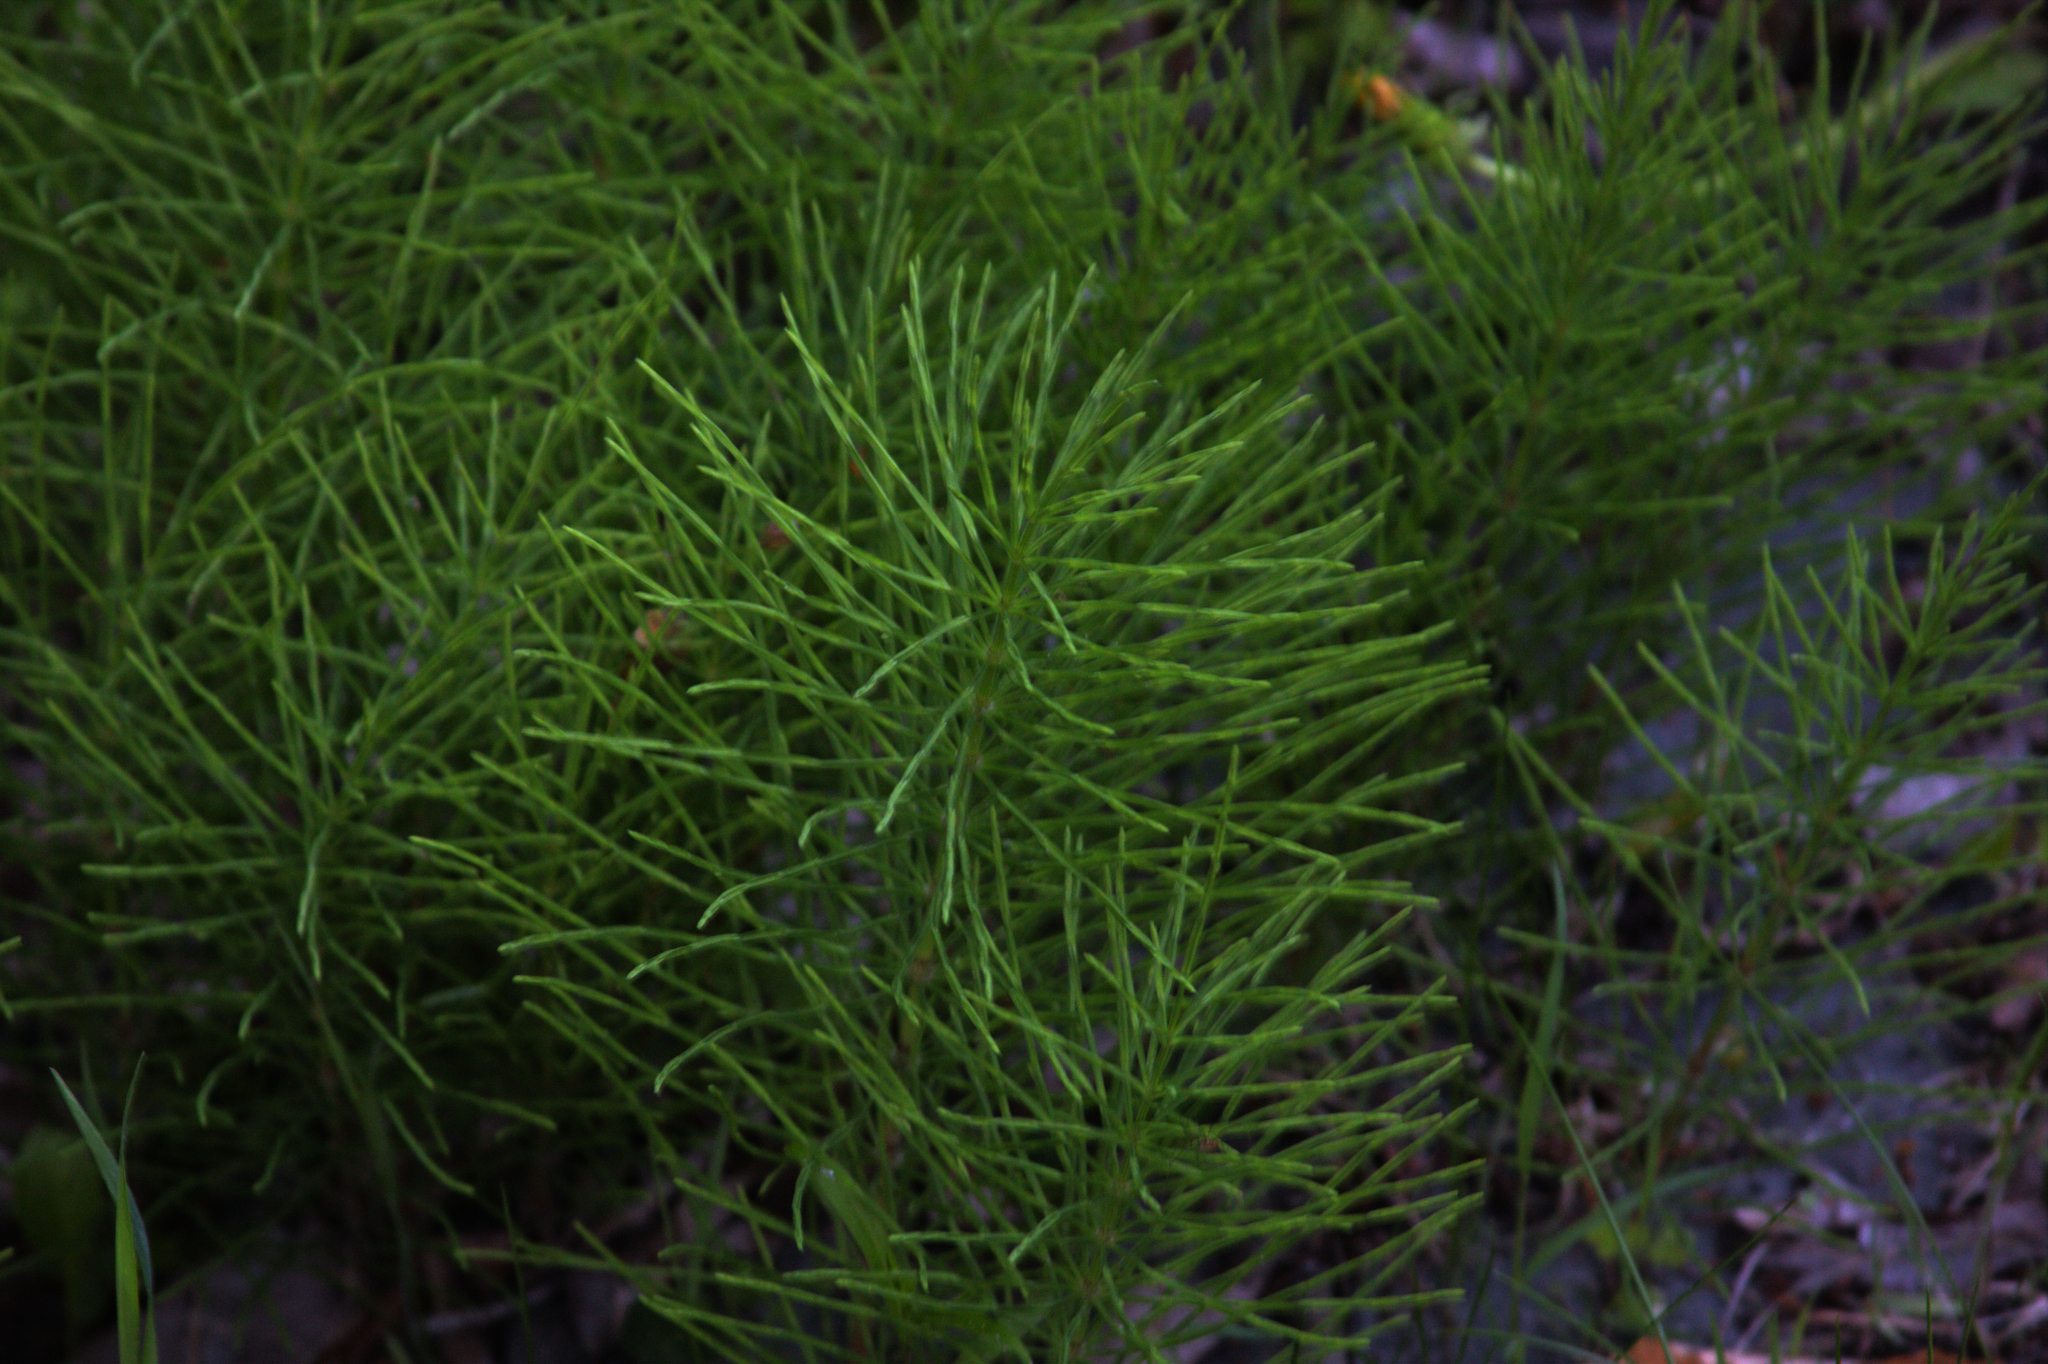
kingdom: Plantae
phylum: Tracheophyta
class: Polypodiopsida
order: Equisetales
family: Equisetaceae
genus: Equisetum
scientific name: Equisetum arvense
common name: Field horsetail
